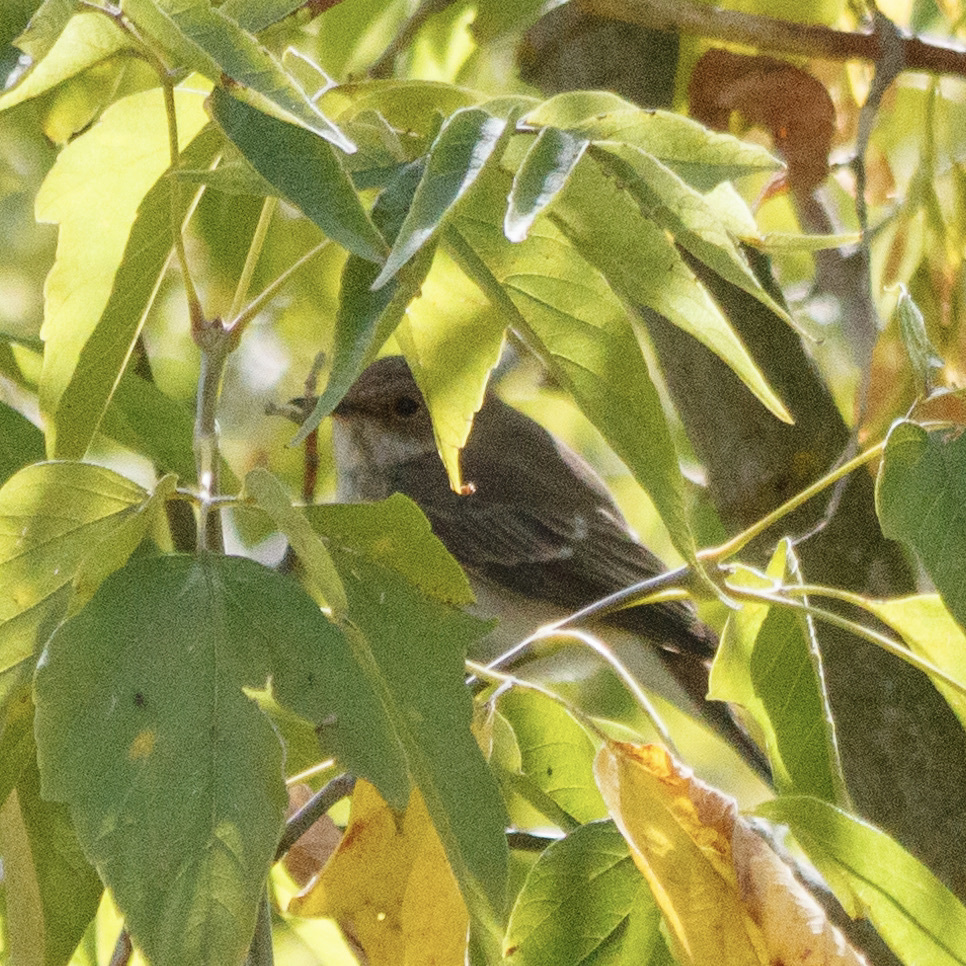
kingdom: Animalia
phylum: Chordata
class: Aves
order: Passeriformes
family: Muscicapidae
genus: Ficedula
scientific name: Ficedula hypoleuca
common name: European pied flycatcher
